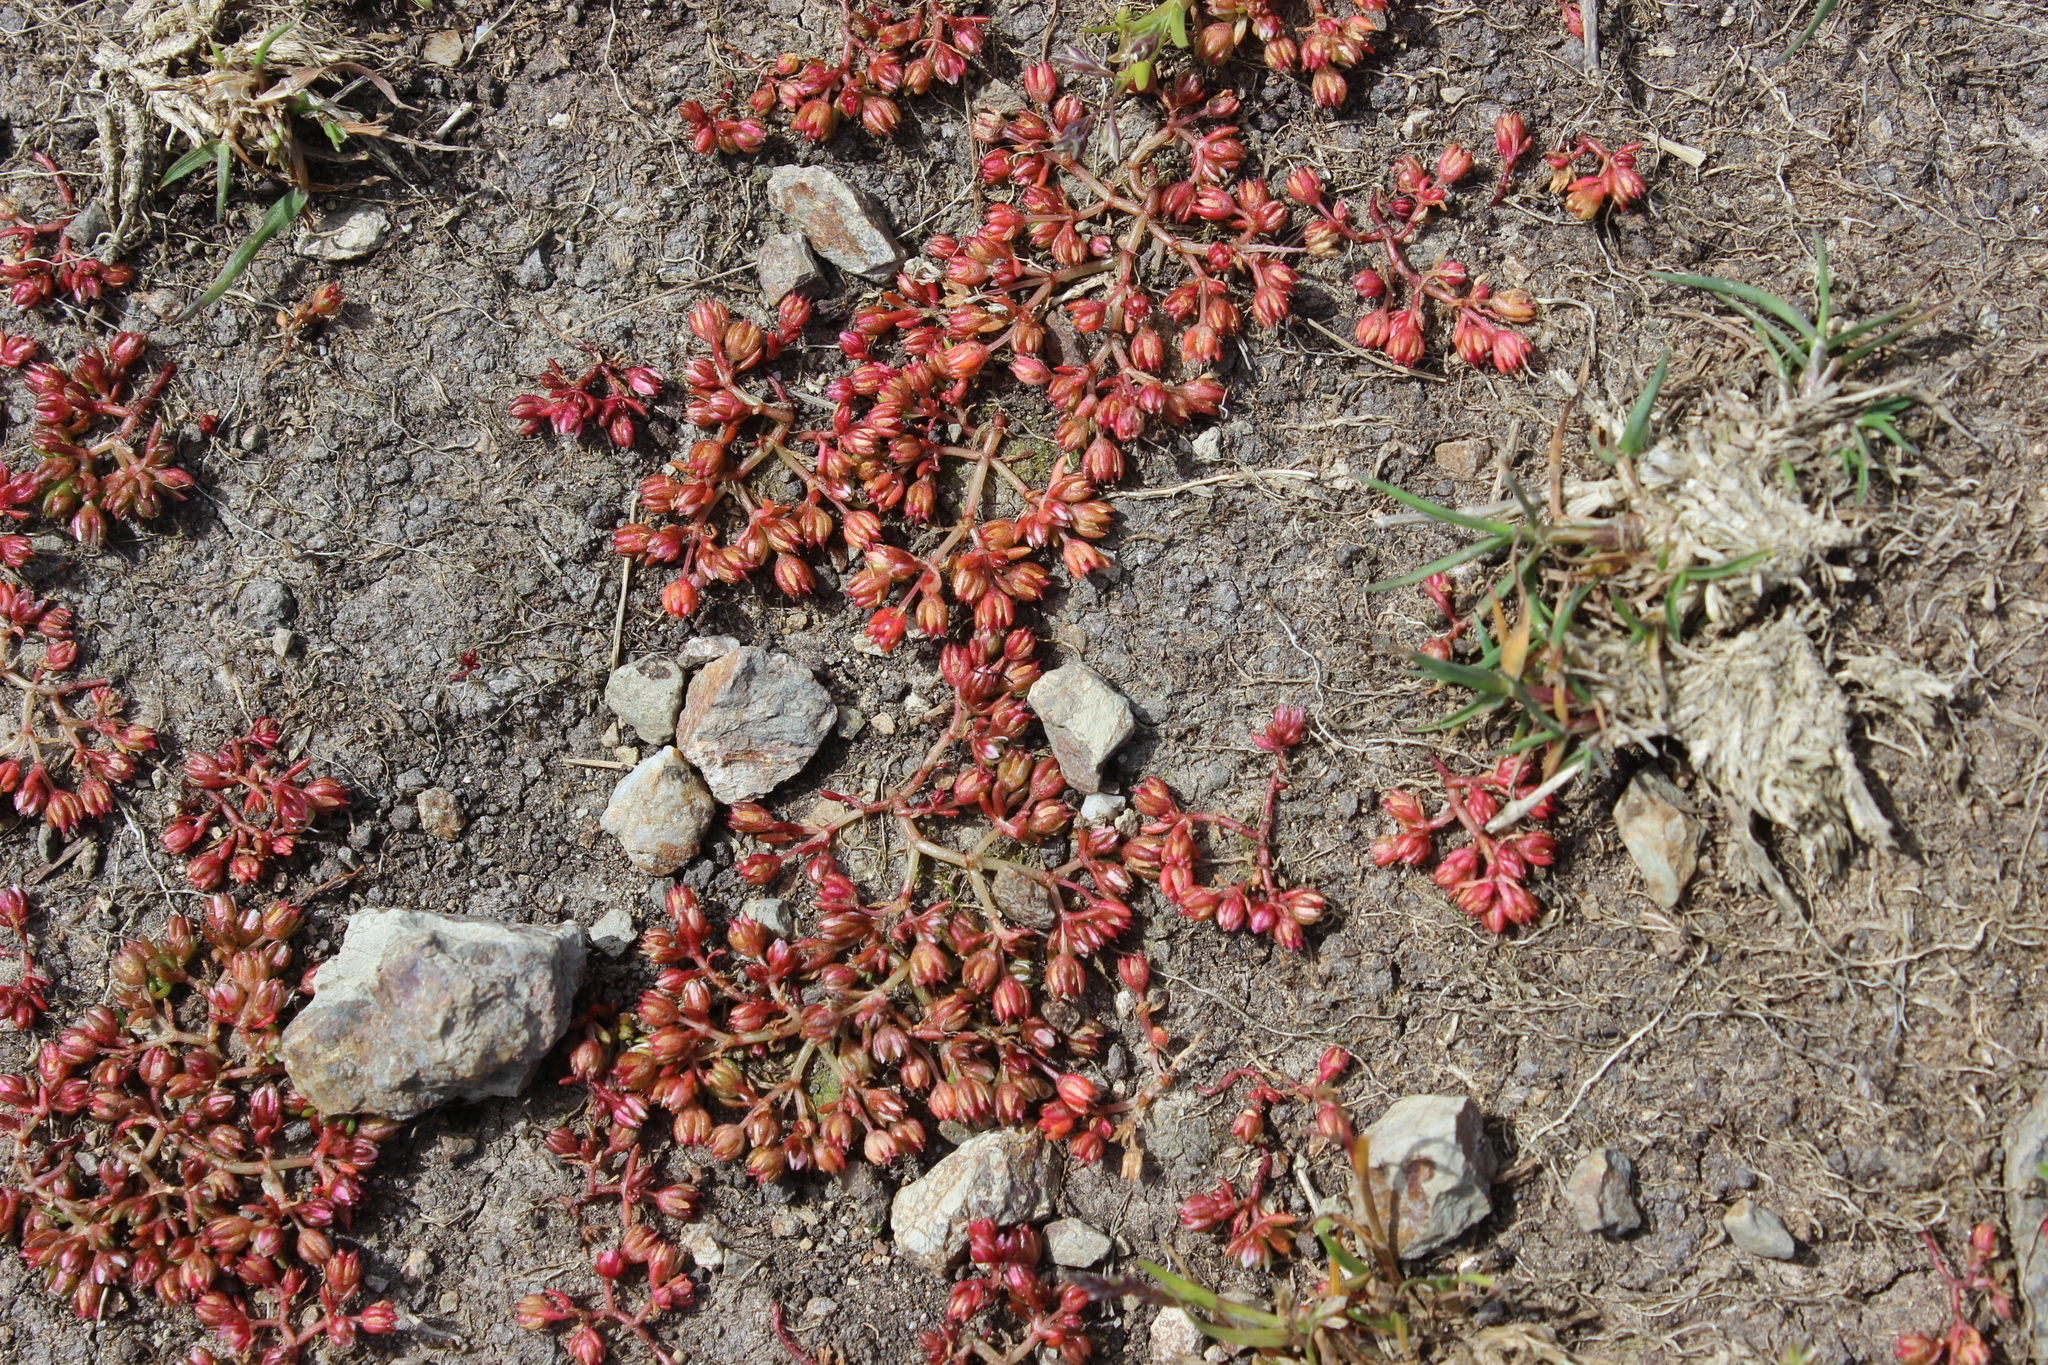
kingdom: Plantae
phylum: Tracheophyta
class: Magnoliopsida
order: Saxifragales
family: Crassulaceae
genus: Crassula
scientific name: Crassula decumbens
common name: Scilly pigmyweed
